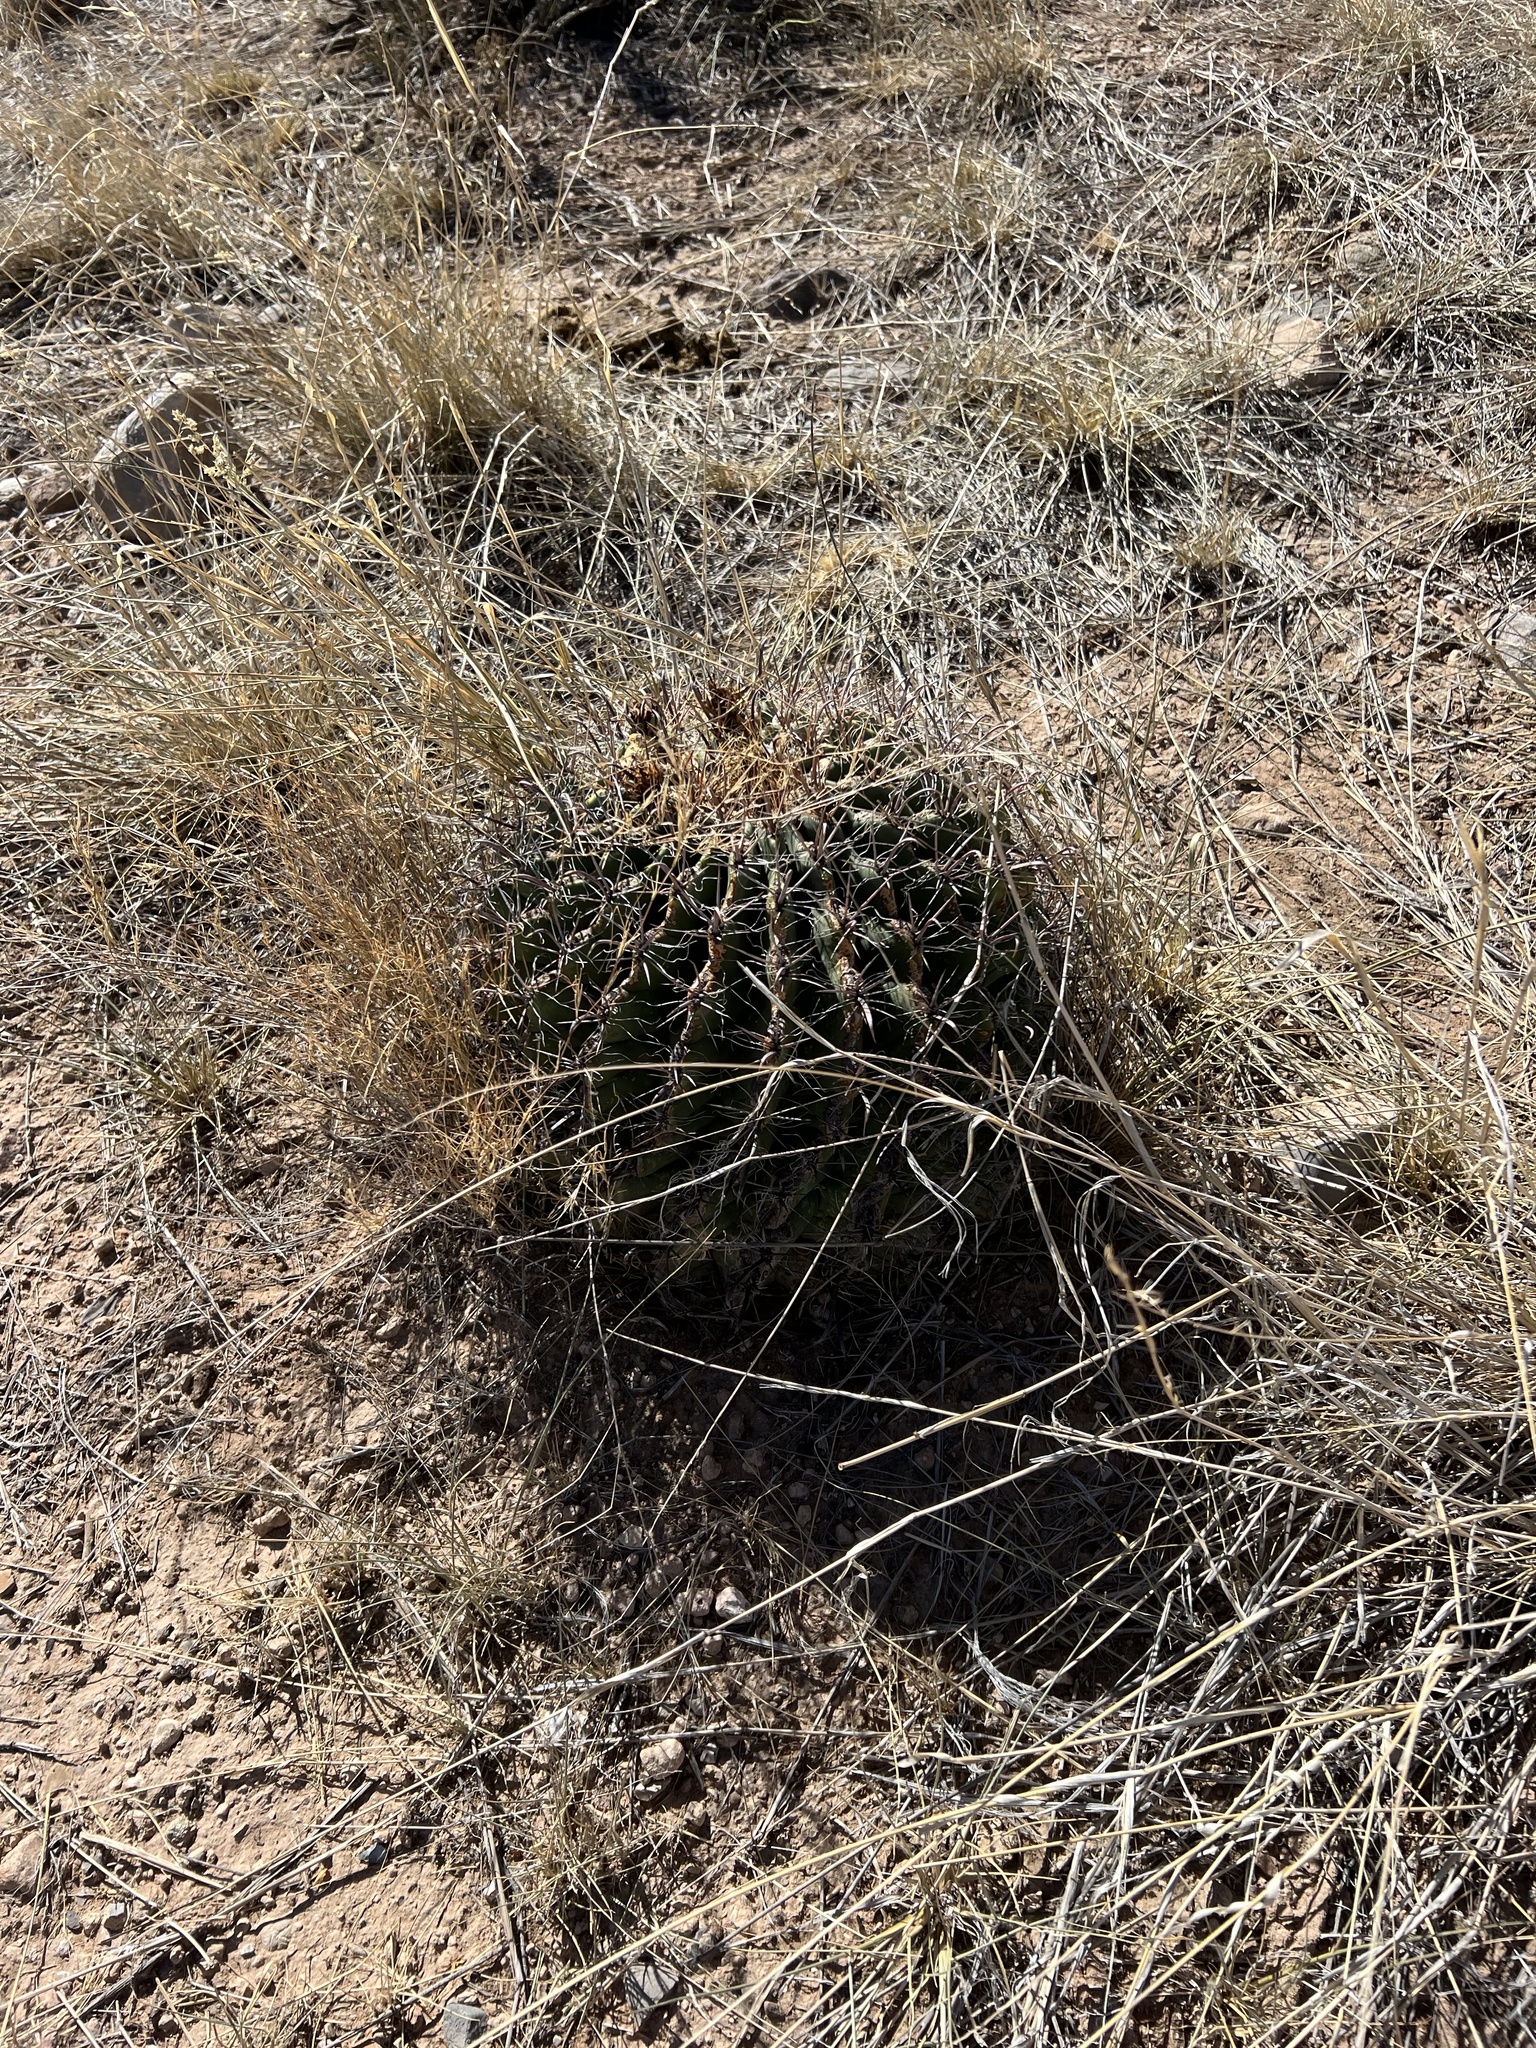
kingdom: Plantae
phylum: Tracheophyta
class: Magnoliopsida
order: Caryophyllales
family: Cactaceae
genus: Ferocactus
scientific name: Ferocactus wislizeni
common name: Candy barrel cactus
